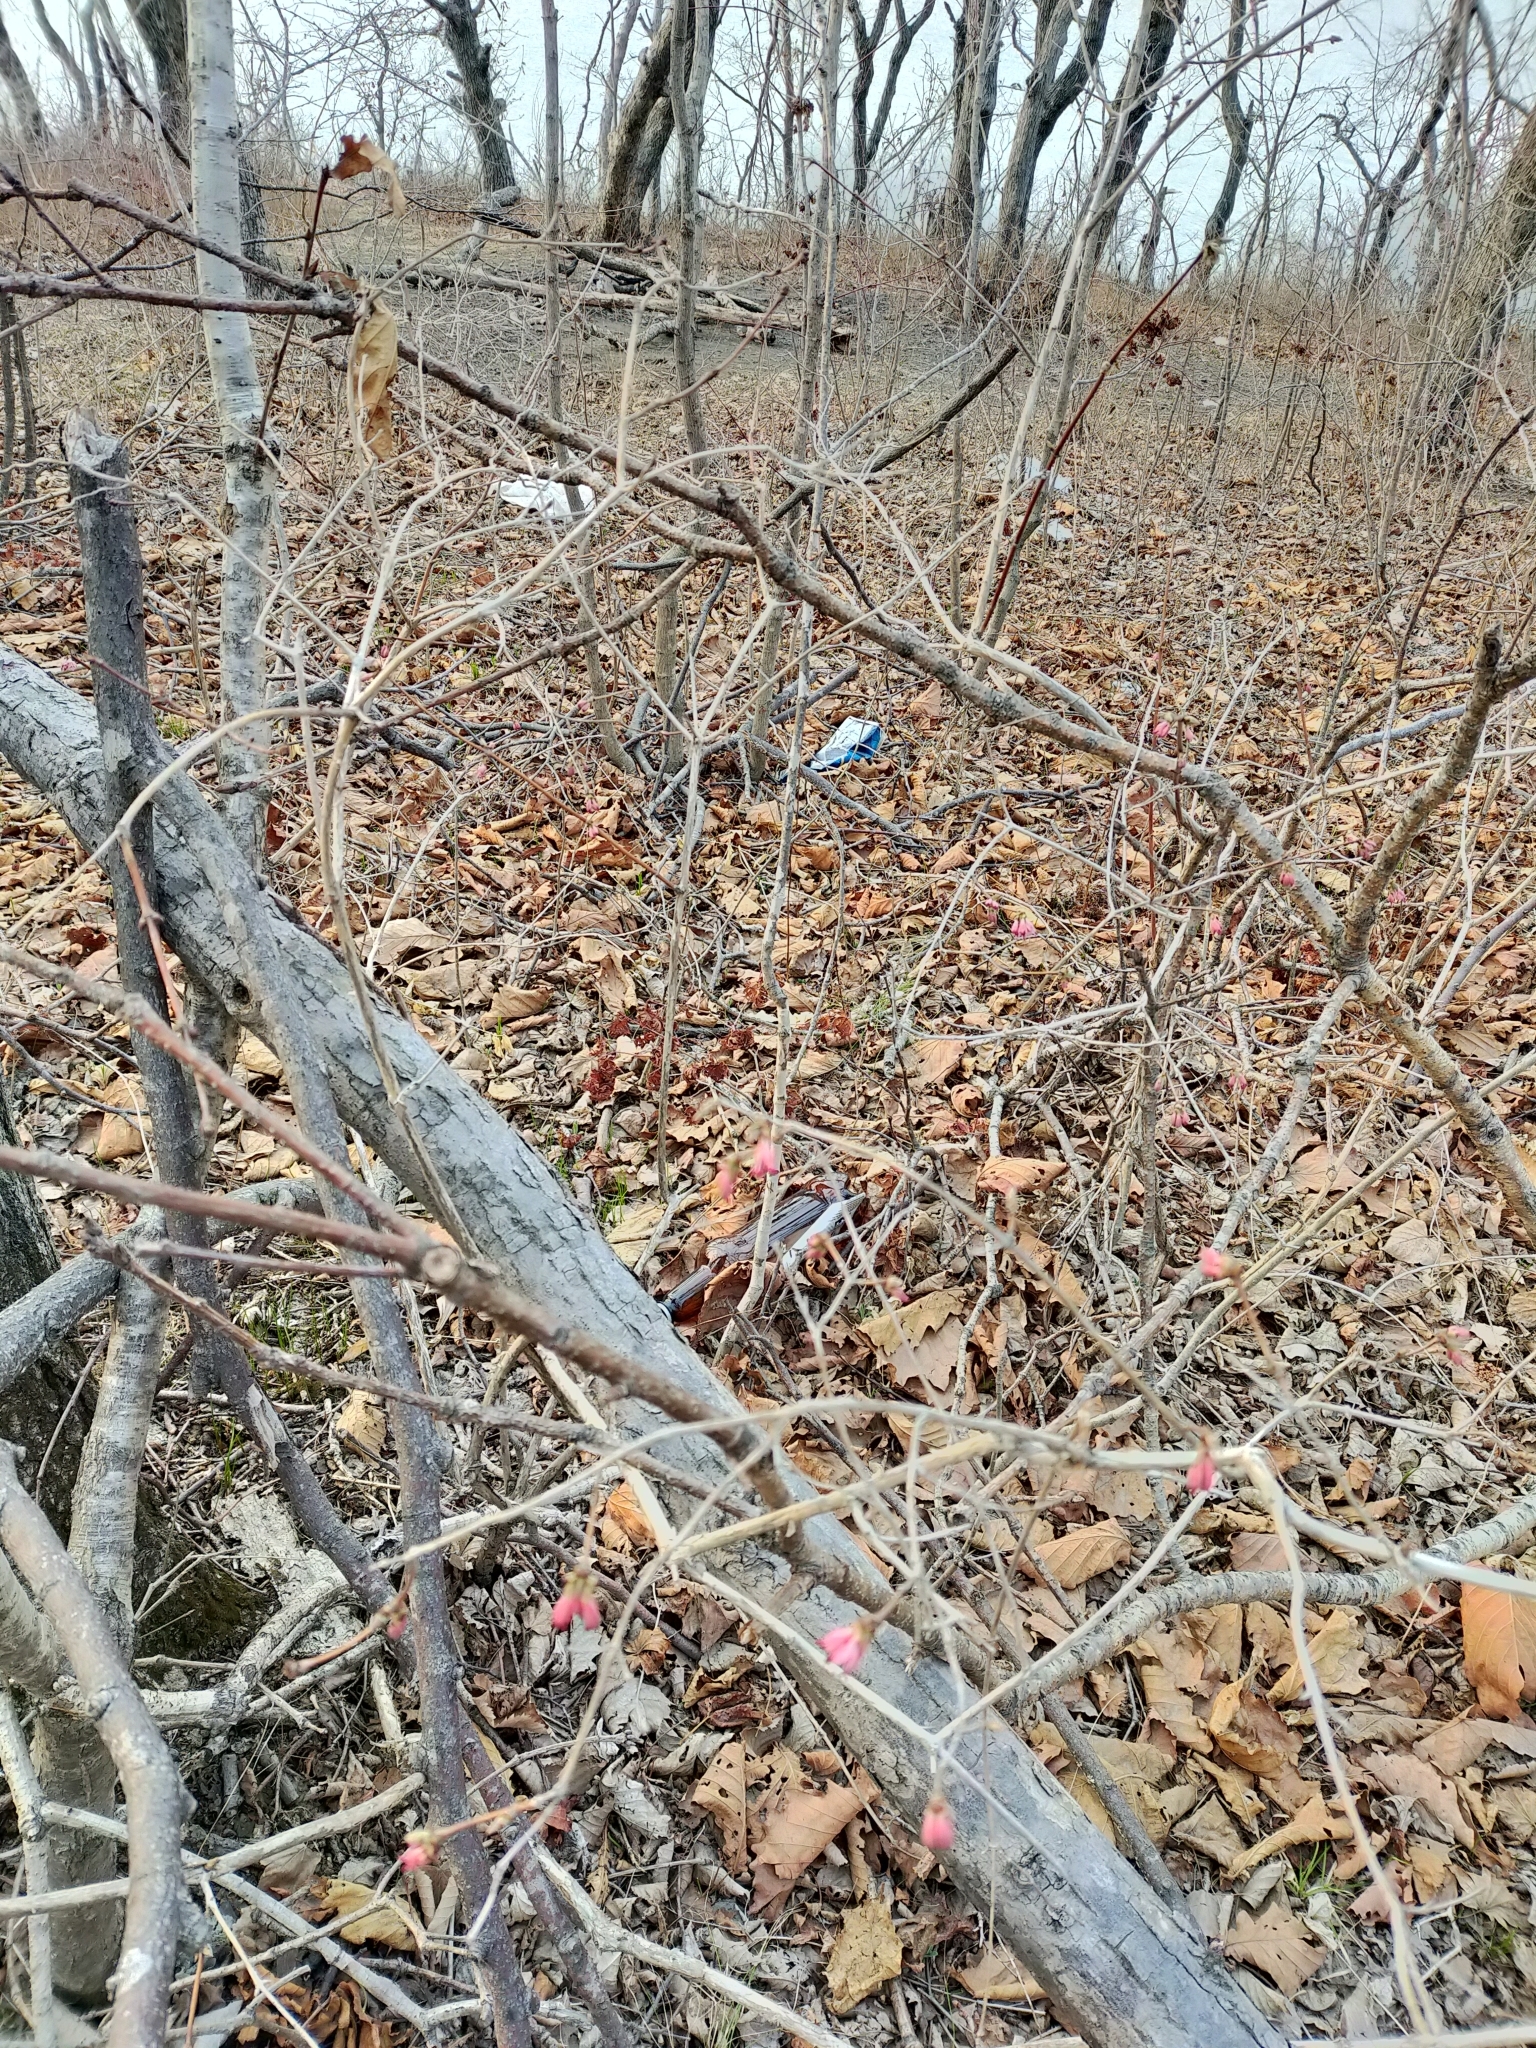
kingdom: Plantae
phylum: Tracheophyta
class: Magnoliopsida
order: Dipsacales
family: Caprifoliaceae
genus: Lonicera
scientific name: Lonicera praeflorens
